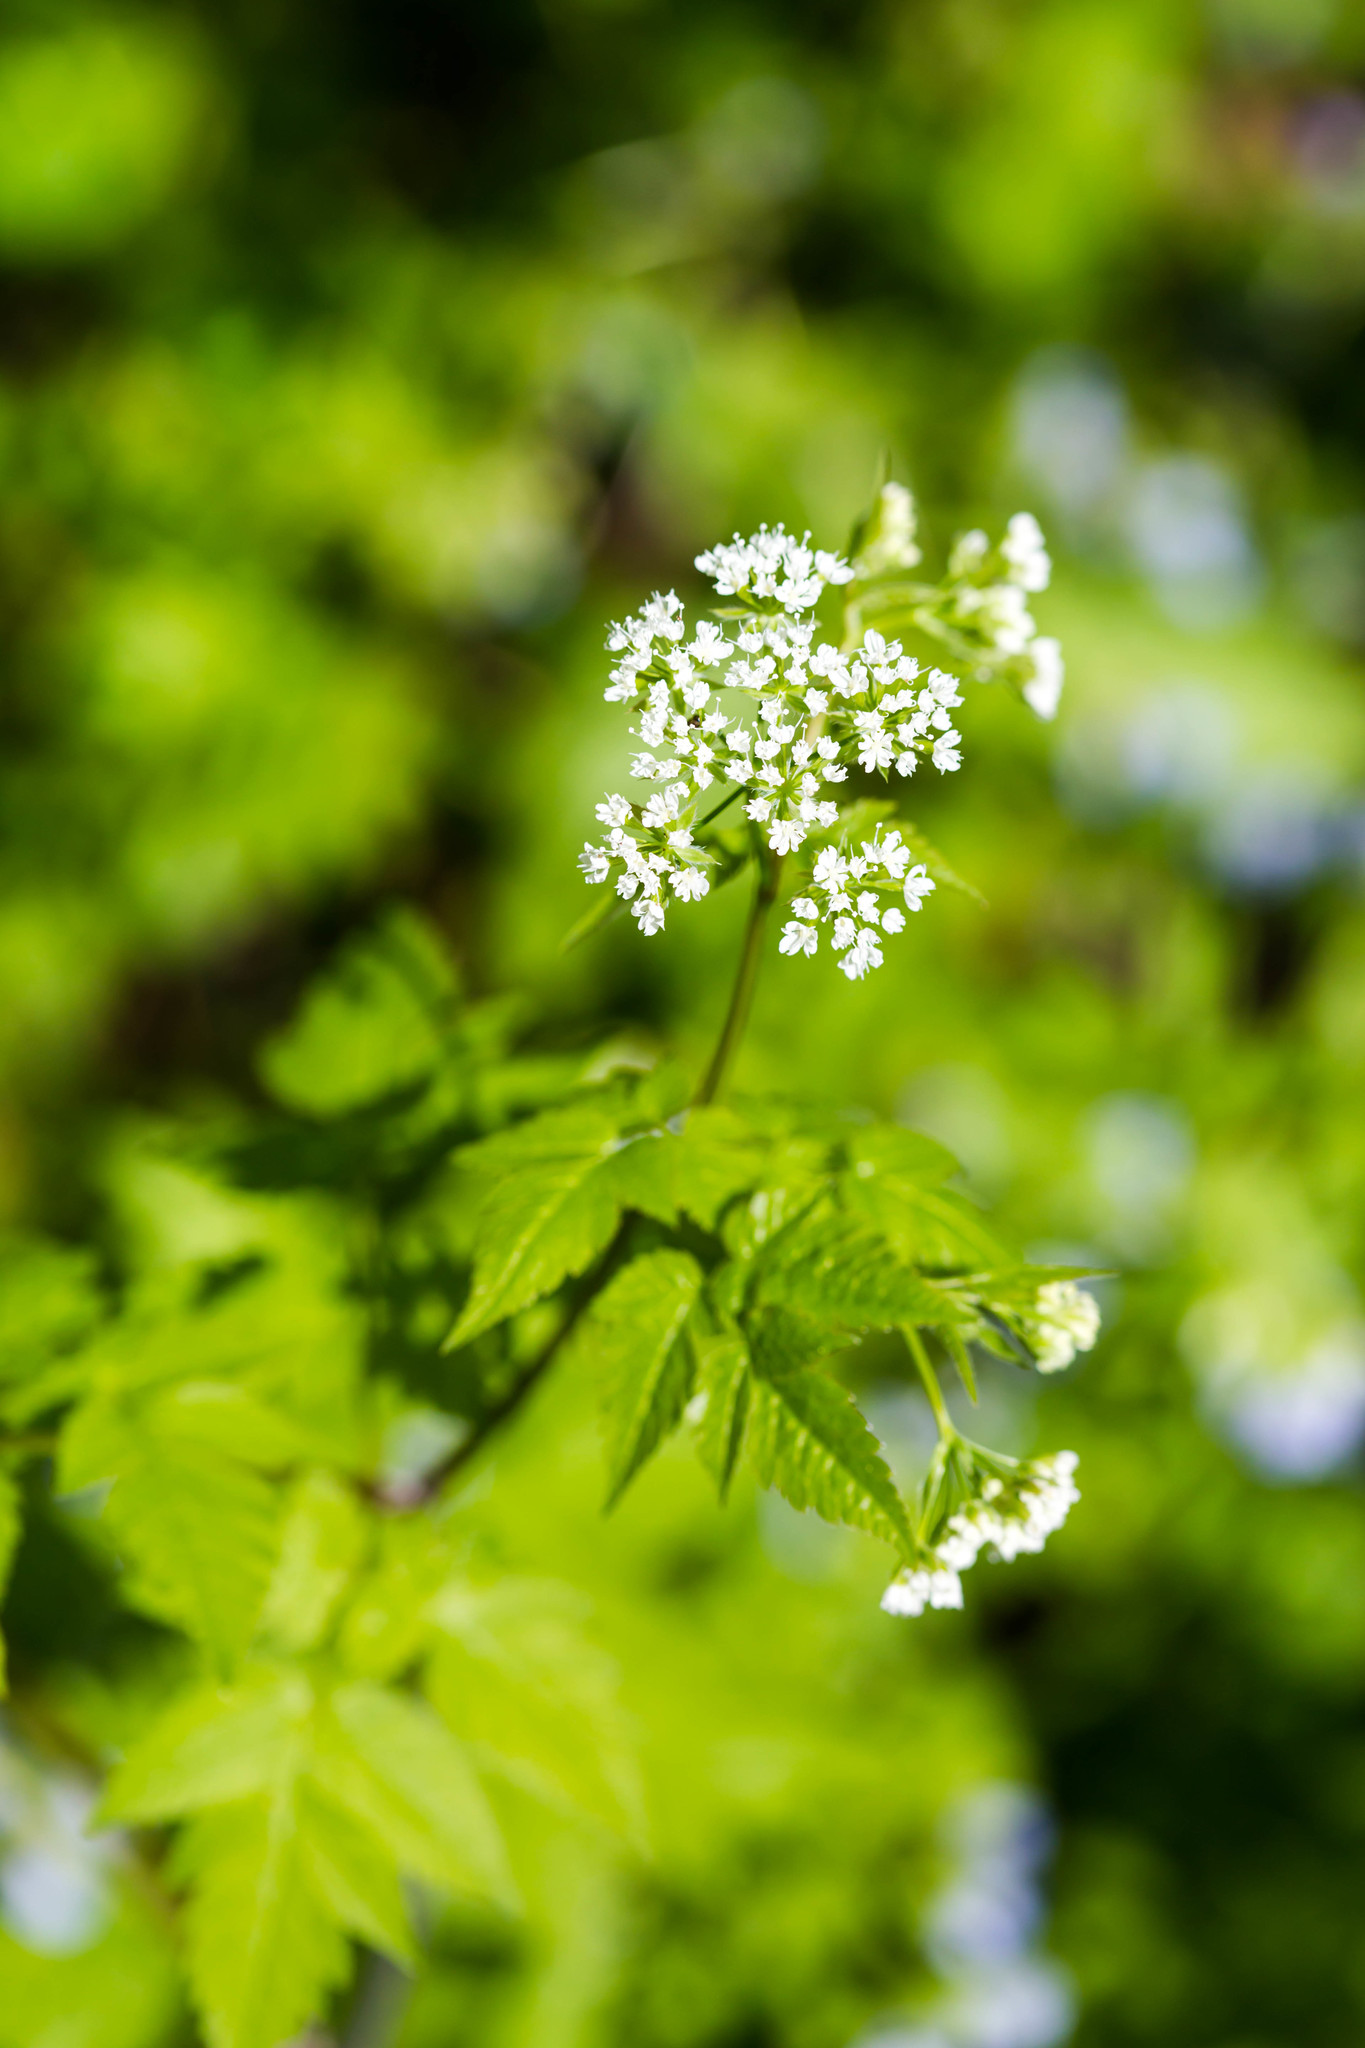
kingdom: Plantae
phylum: Tracheophyta
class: Magnoliopsida
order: Apiales
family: Apiaceae
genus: Osmorhiza
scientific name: Osmorhiza longistylis
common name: Smooth sweet cicely
